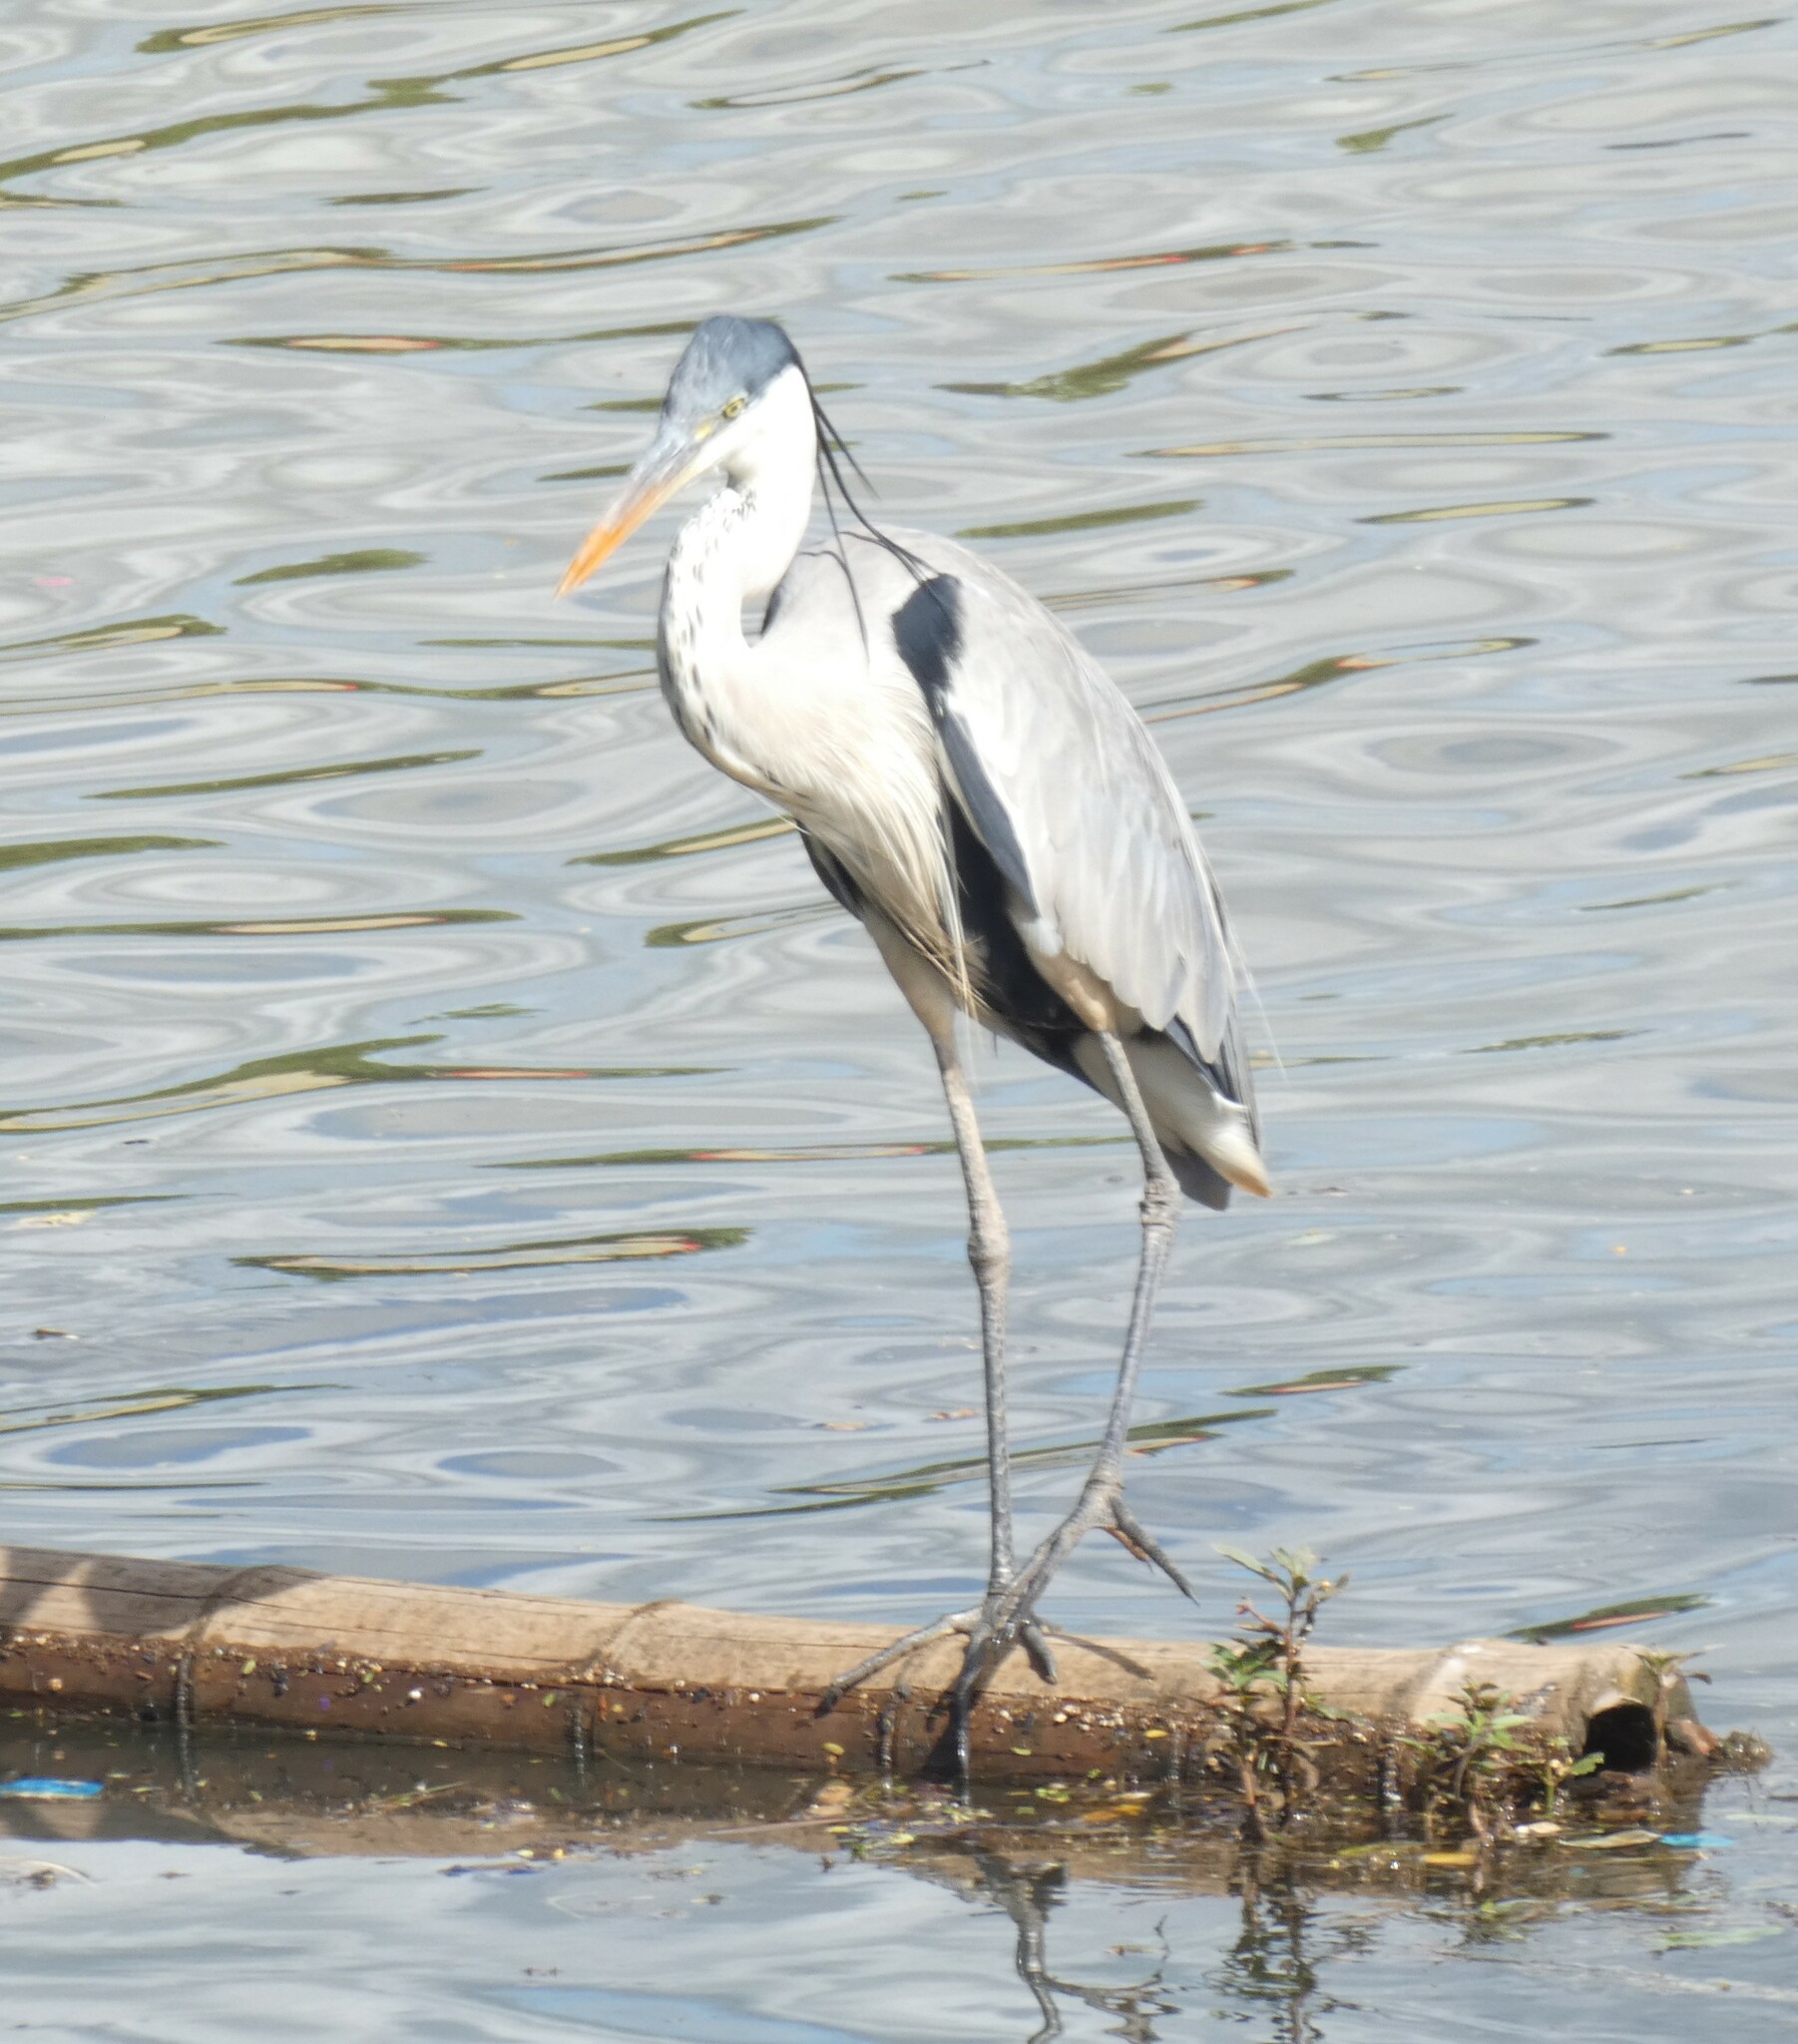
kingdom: Animalia
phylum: Chordata
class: Aves
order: Pelecaniformes
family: Ardeidae
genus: Ardea
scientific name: Ardea cocoi
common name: Cocoi heron
